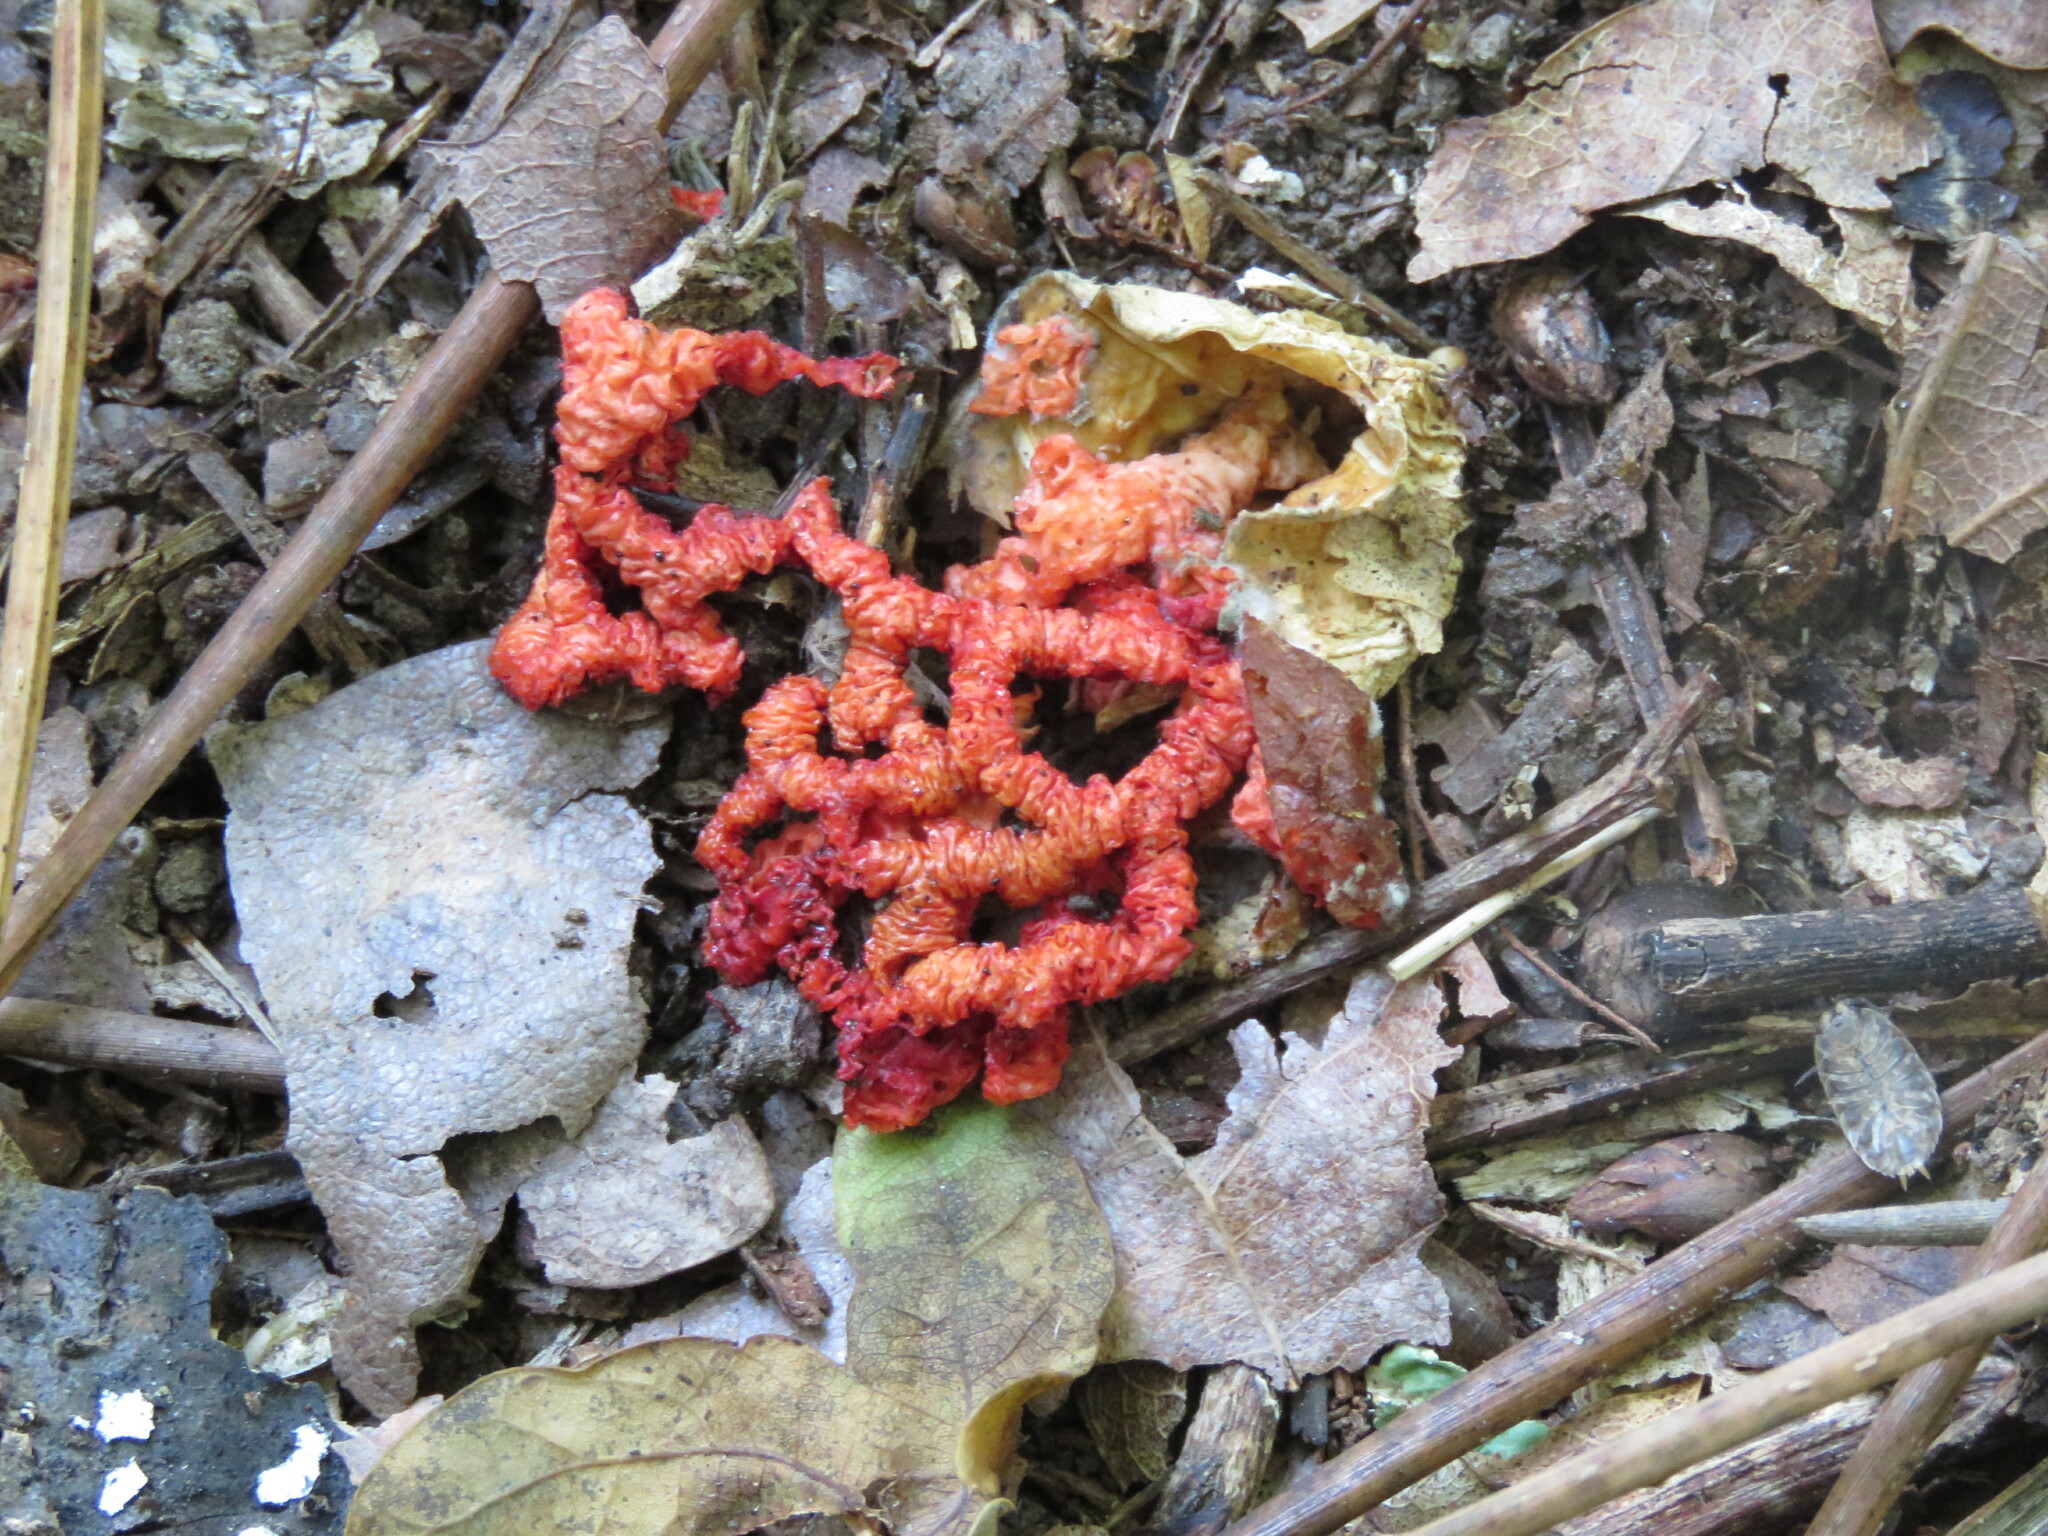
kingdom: Fungi
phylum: Basidiomycota
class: Agaricomycetes
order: Phallales
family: Phallaceae
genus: Clathrus
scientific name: Clathrus ruber
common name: Red cage
